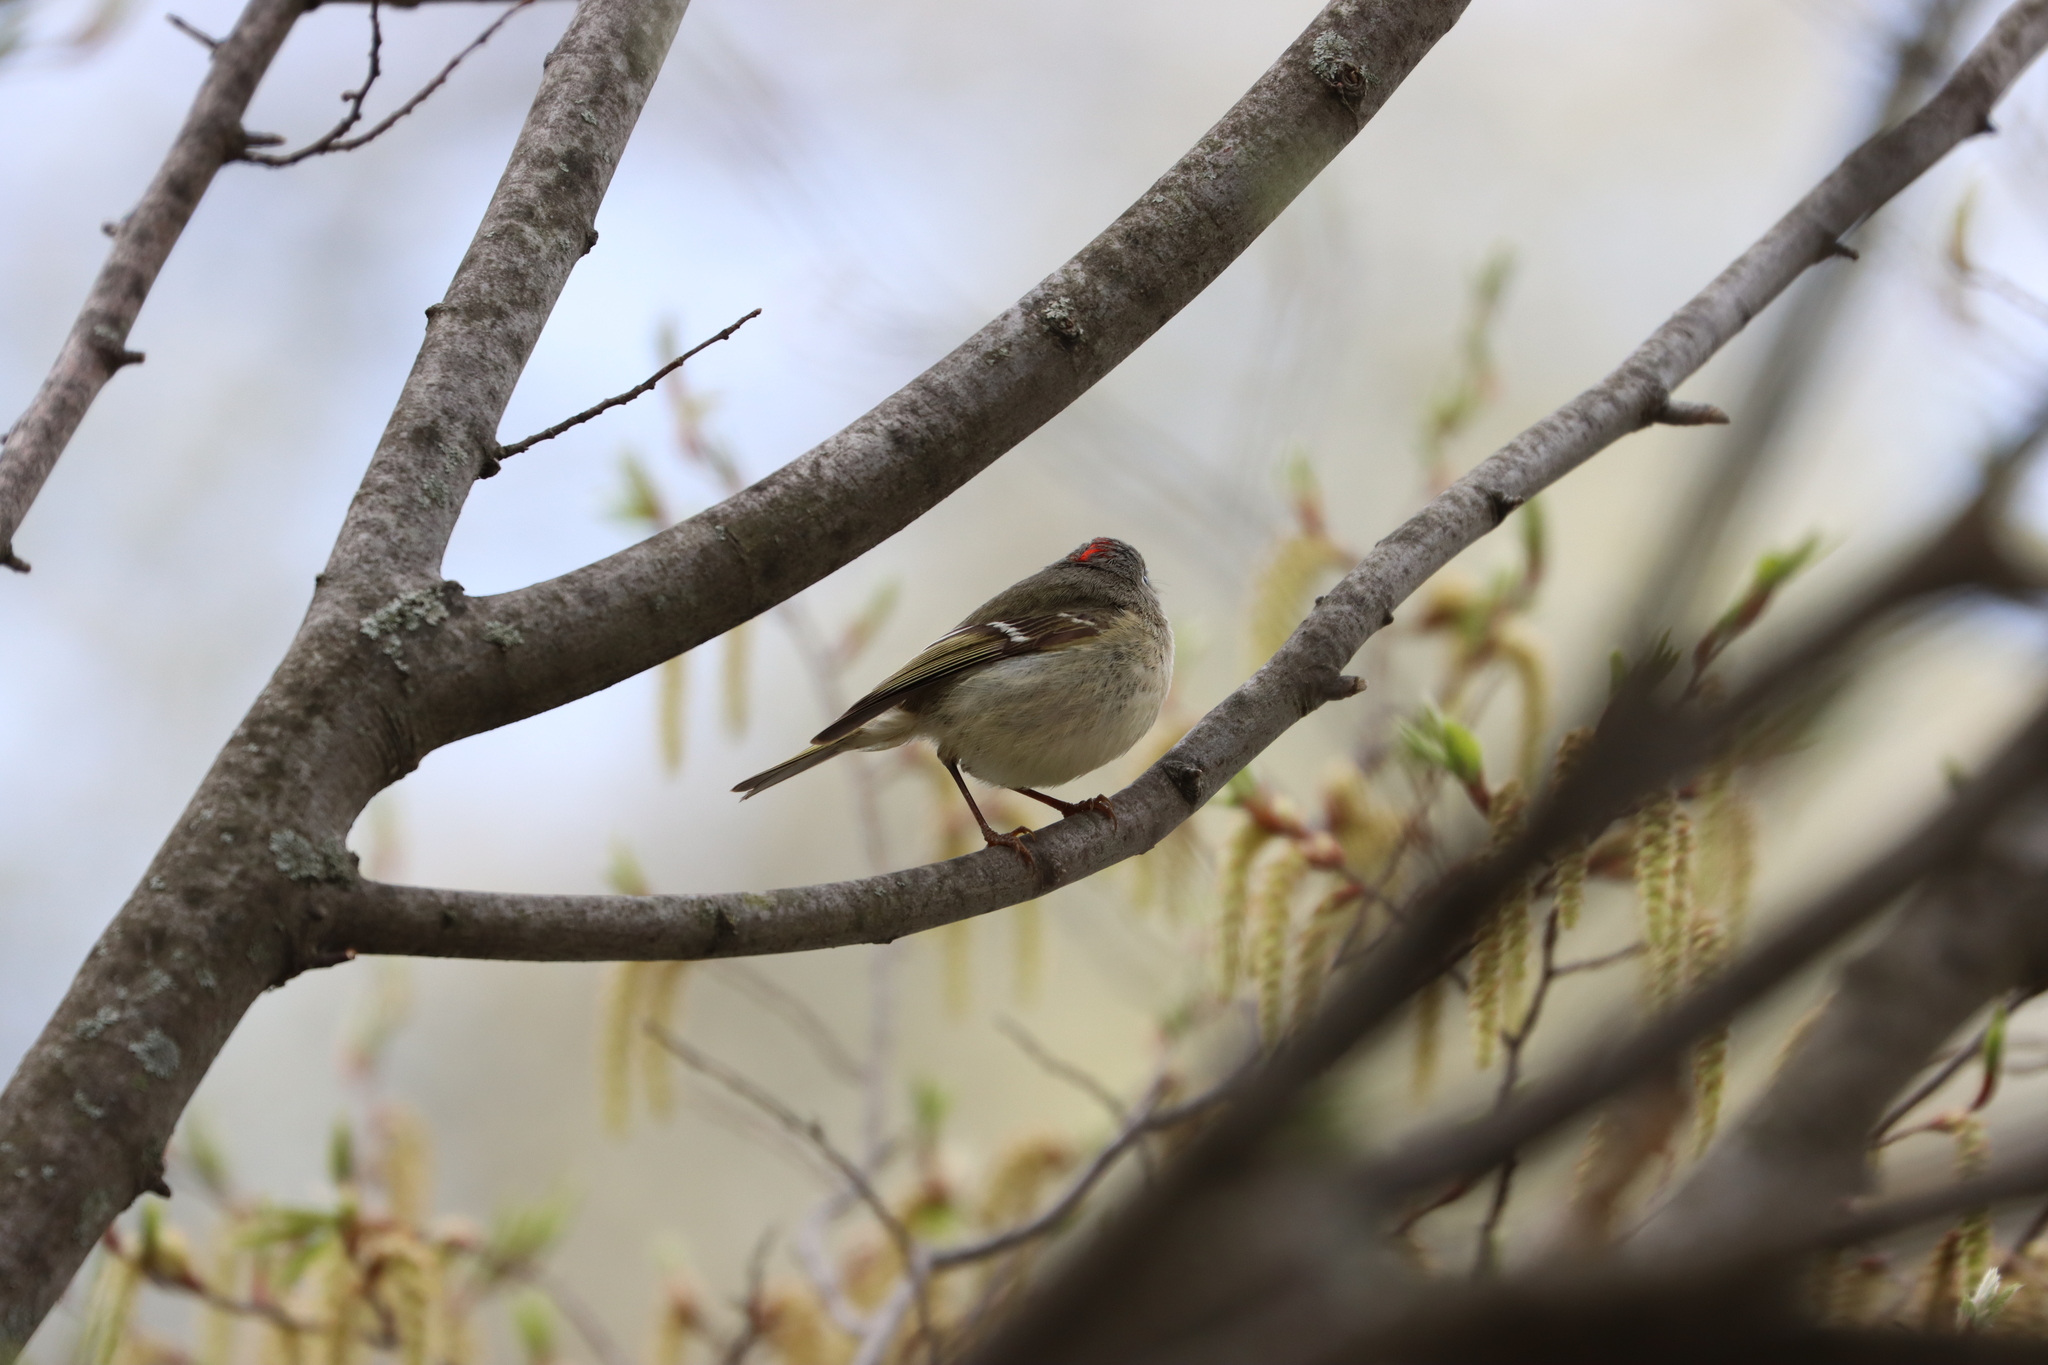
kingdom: Animalia
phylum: Chordata
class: Aves
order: Passeriformes
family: Regulidae
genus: Regulus
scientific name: Regulus calendula
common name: Ruby-crowned kinglet
